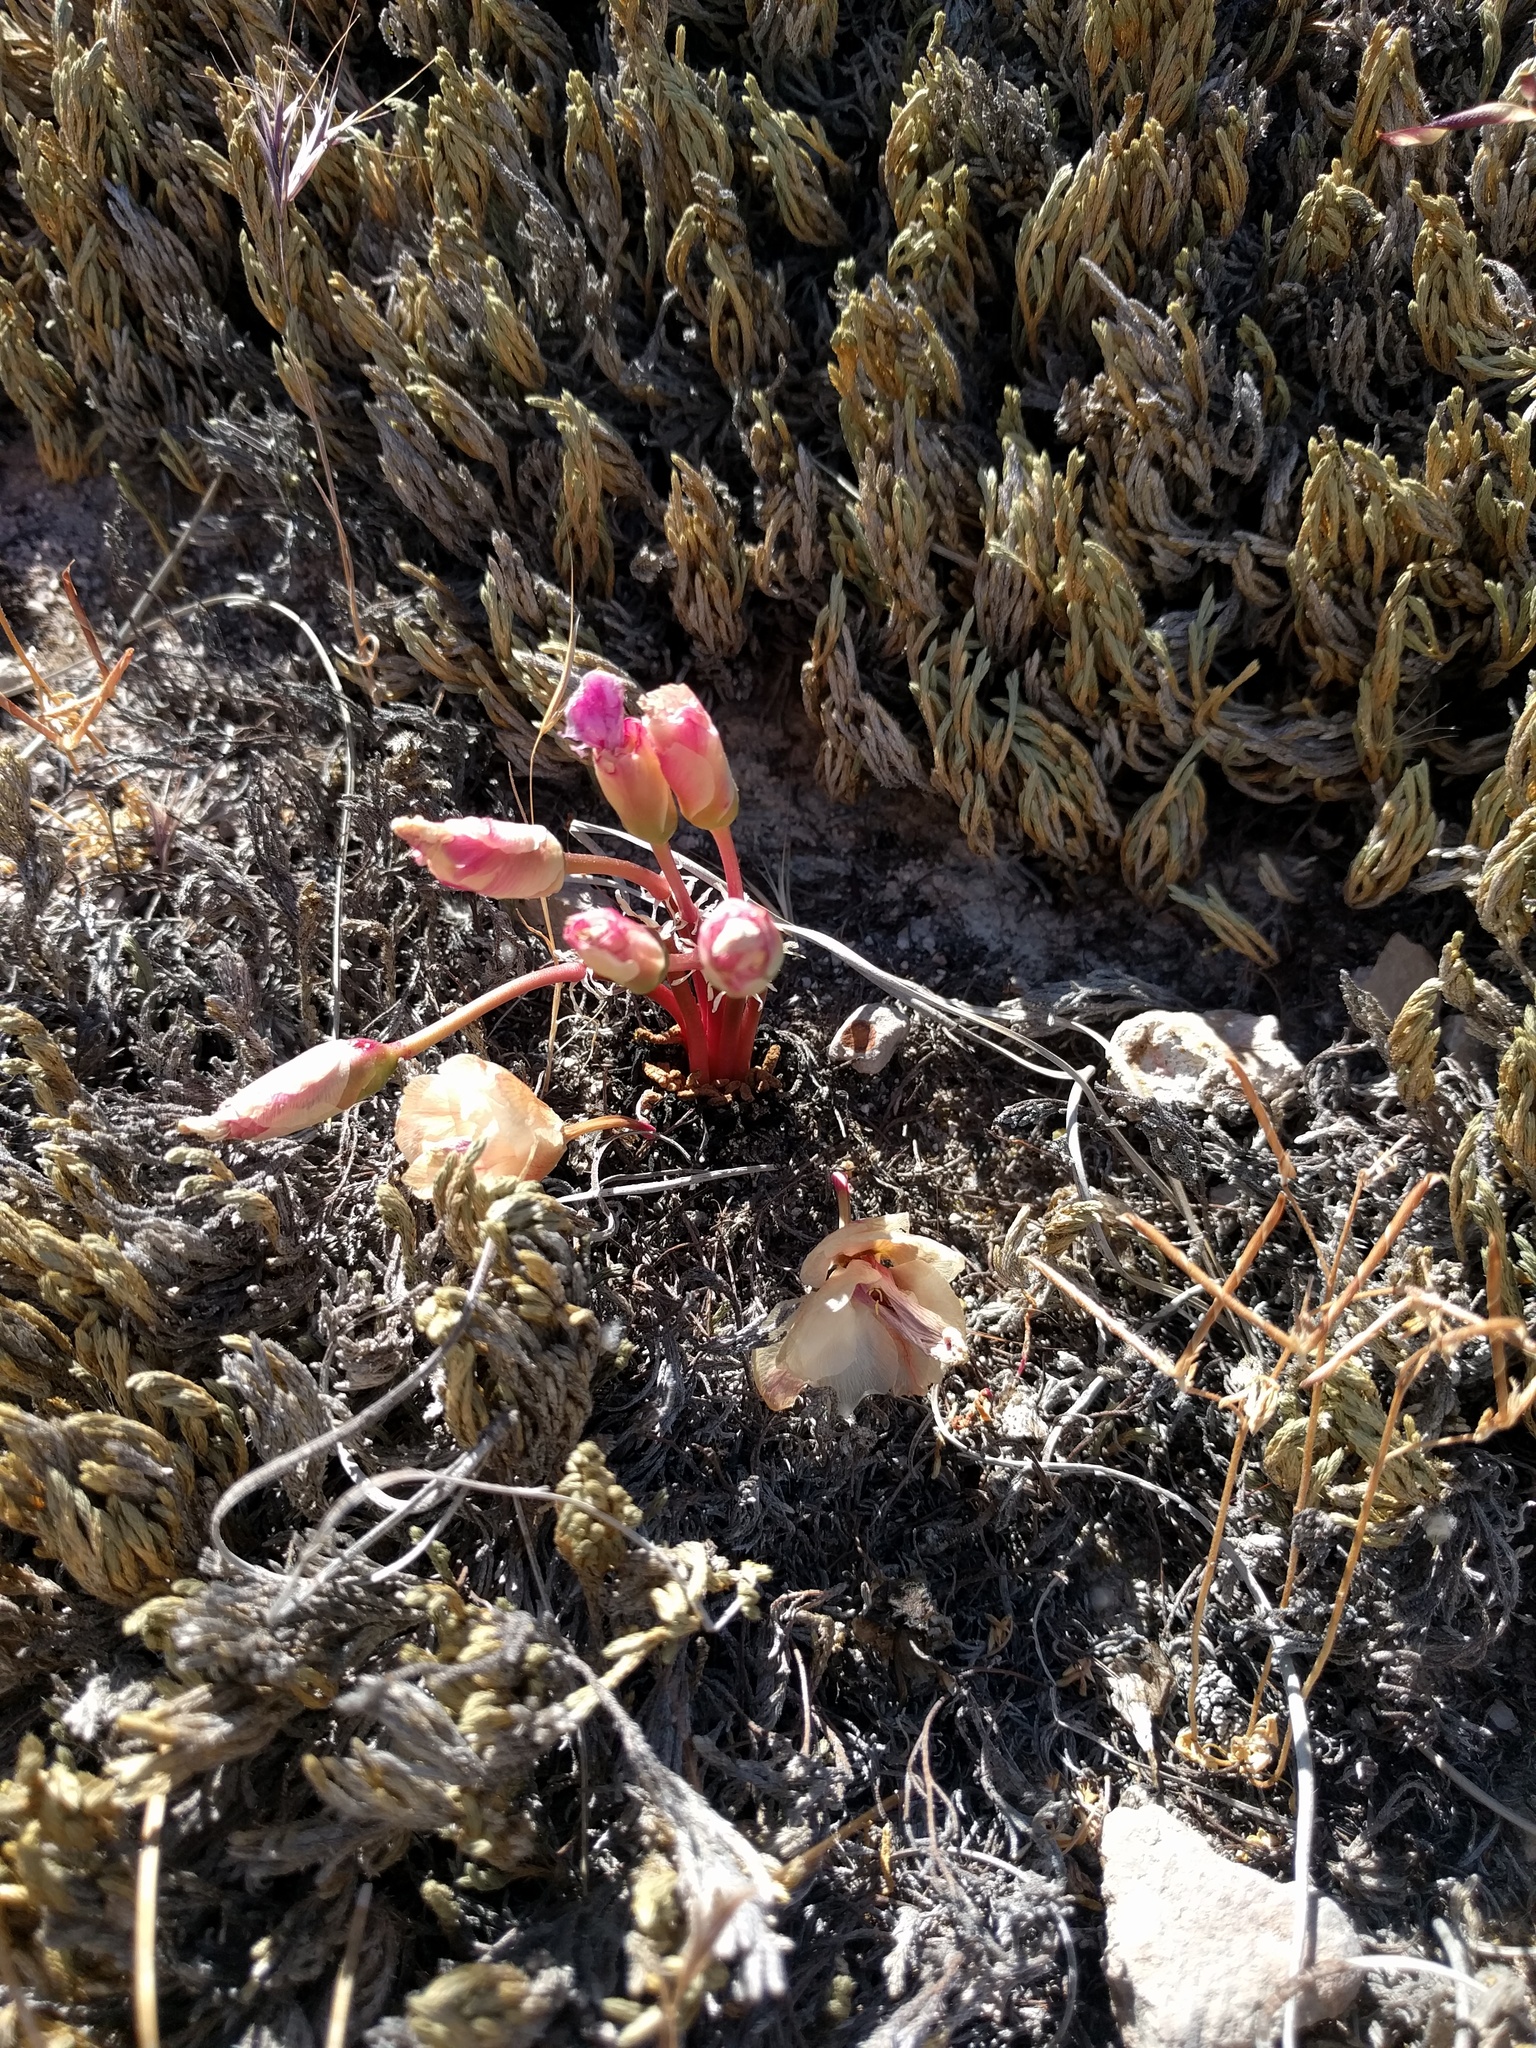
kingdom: Plantae
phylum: Tracheophyta
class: Magnoliopsida
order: Caryophyllales
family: Montiaceae
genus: Lewisia
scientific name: Lewisia rediviva
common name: Bitter-root
